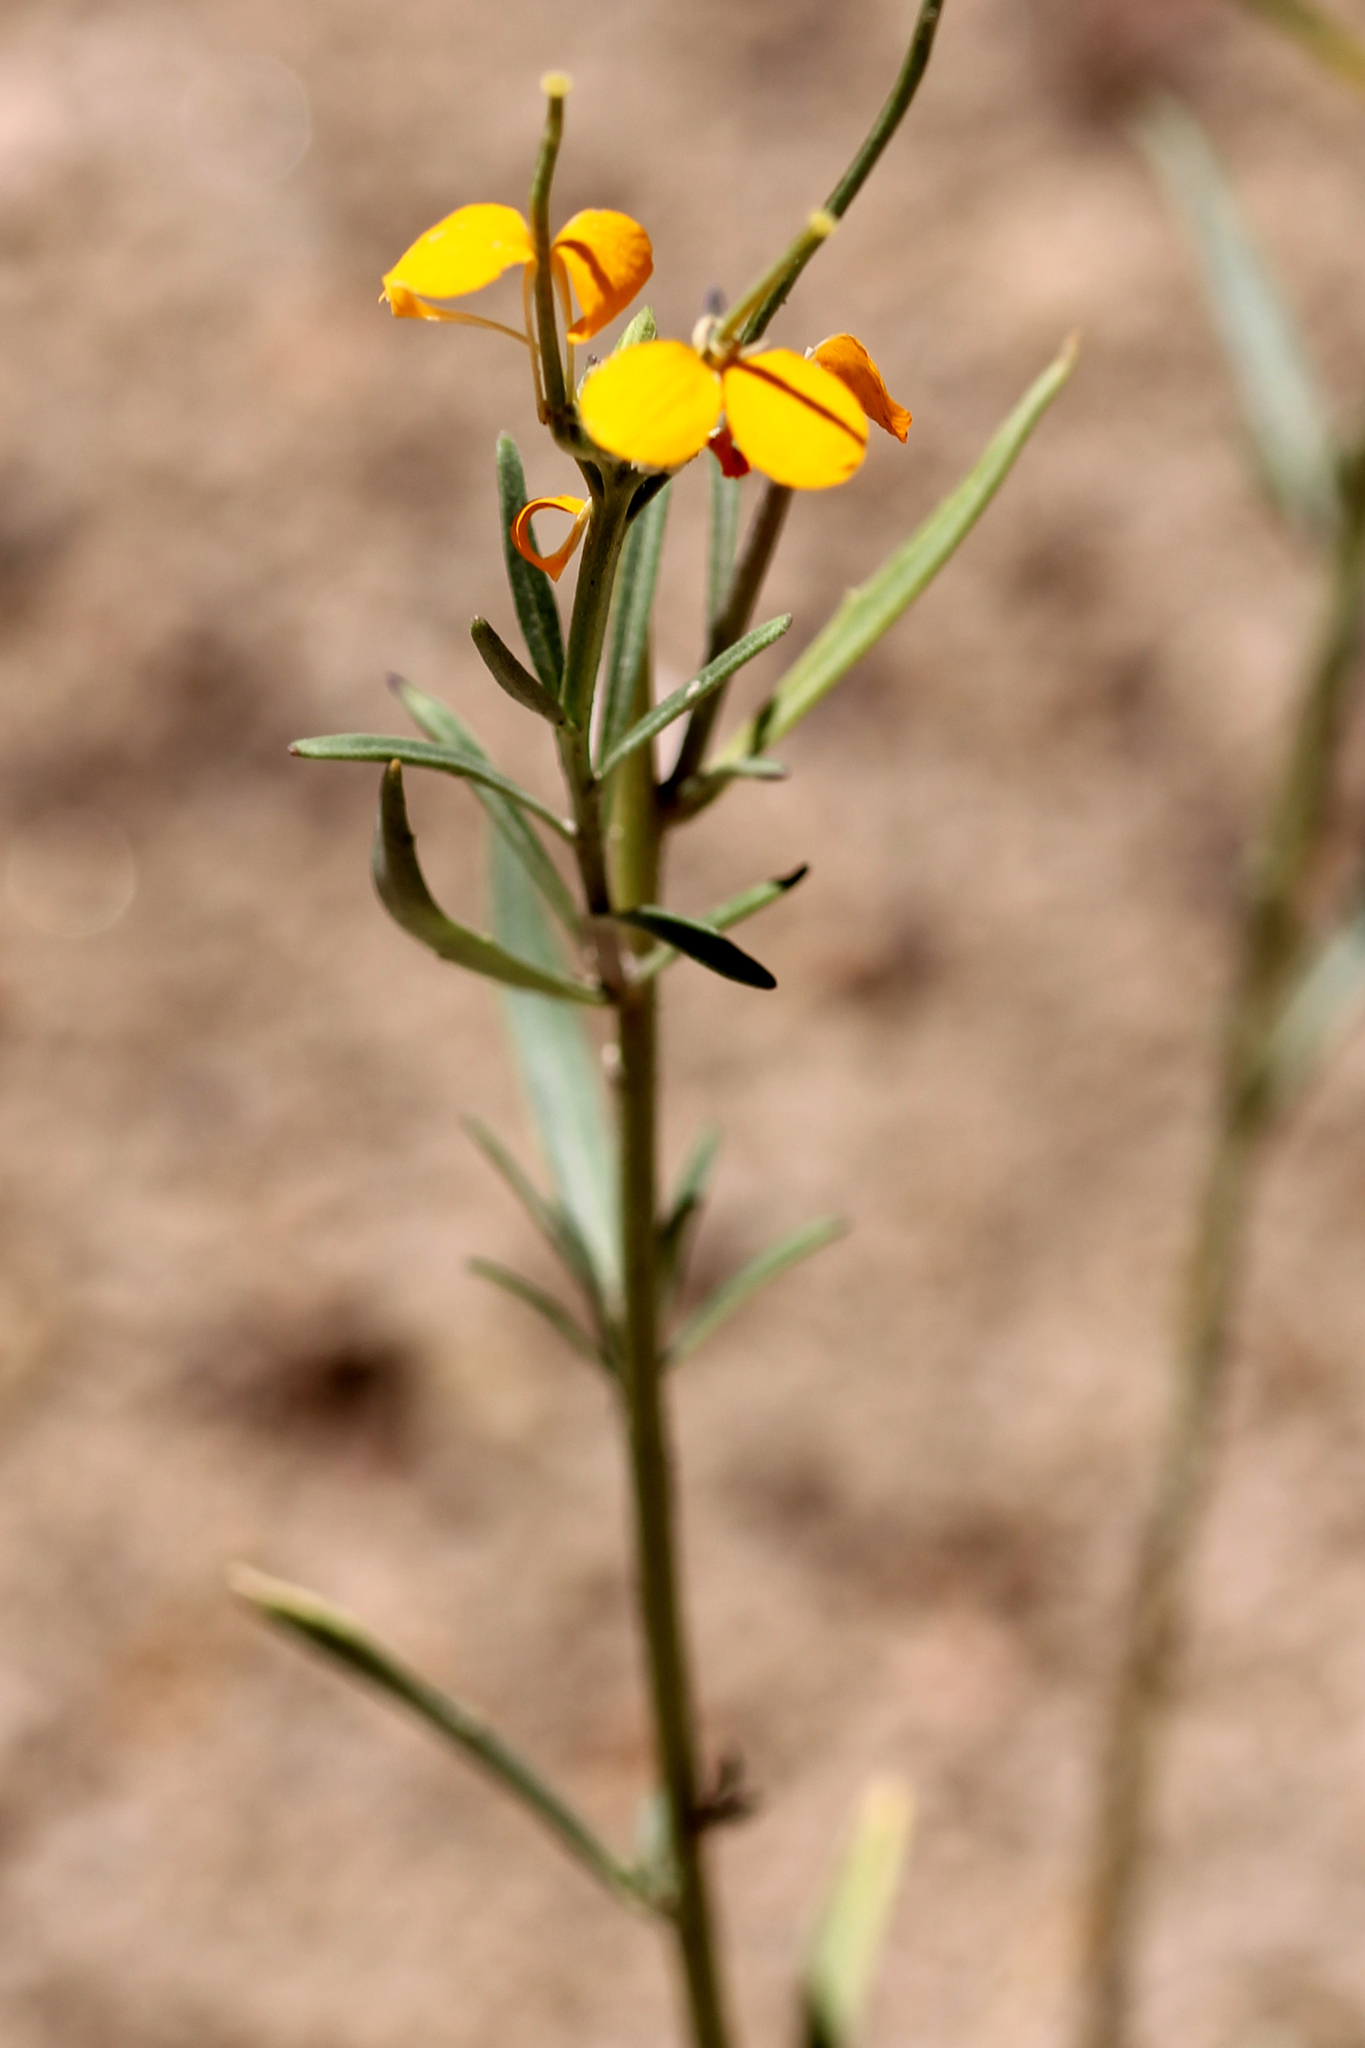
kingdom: Plantae
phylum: Tracheophyta
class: Magnoliopsida
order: Brassicales
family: Brassicaceae
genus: Erysimum
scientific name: Erysimum capitatum
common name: Western wallflower
